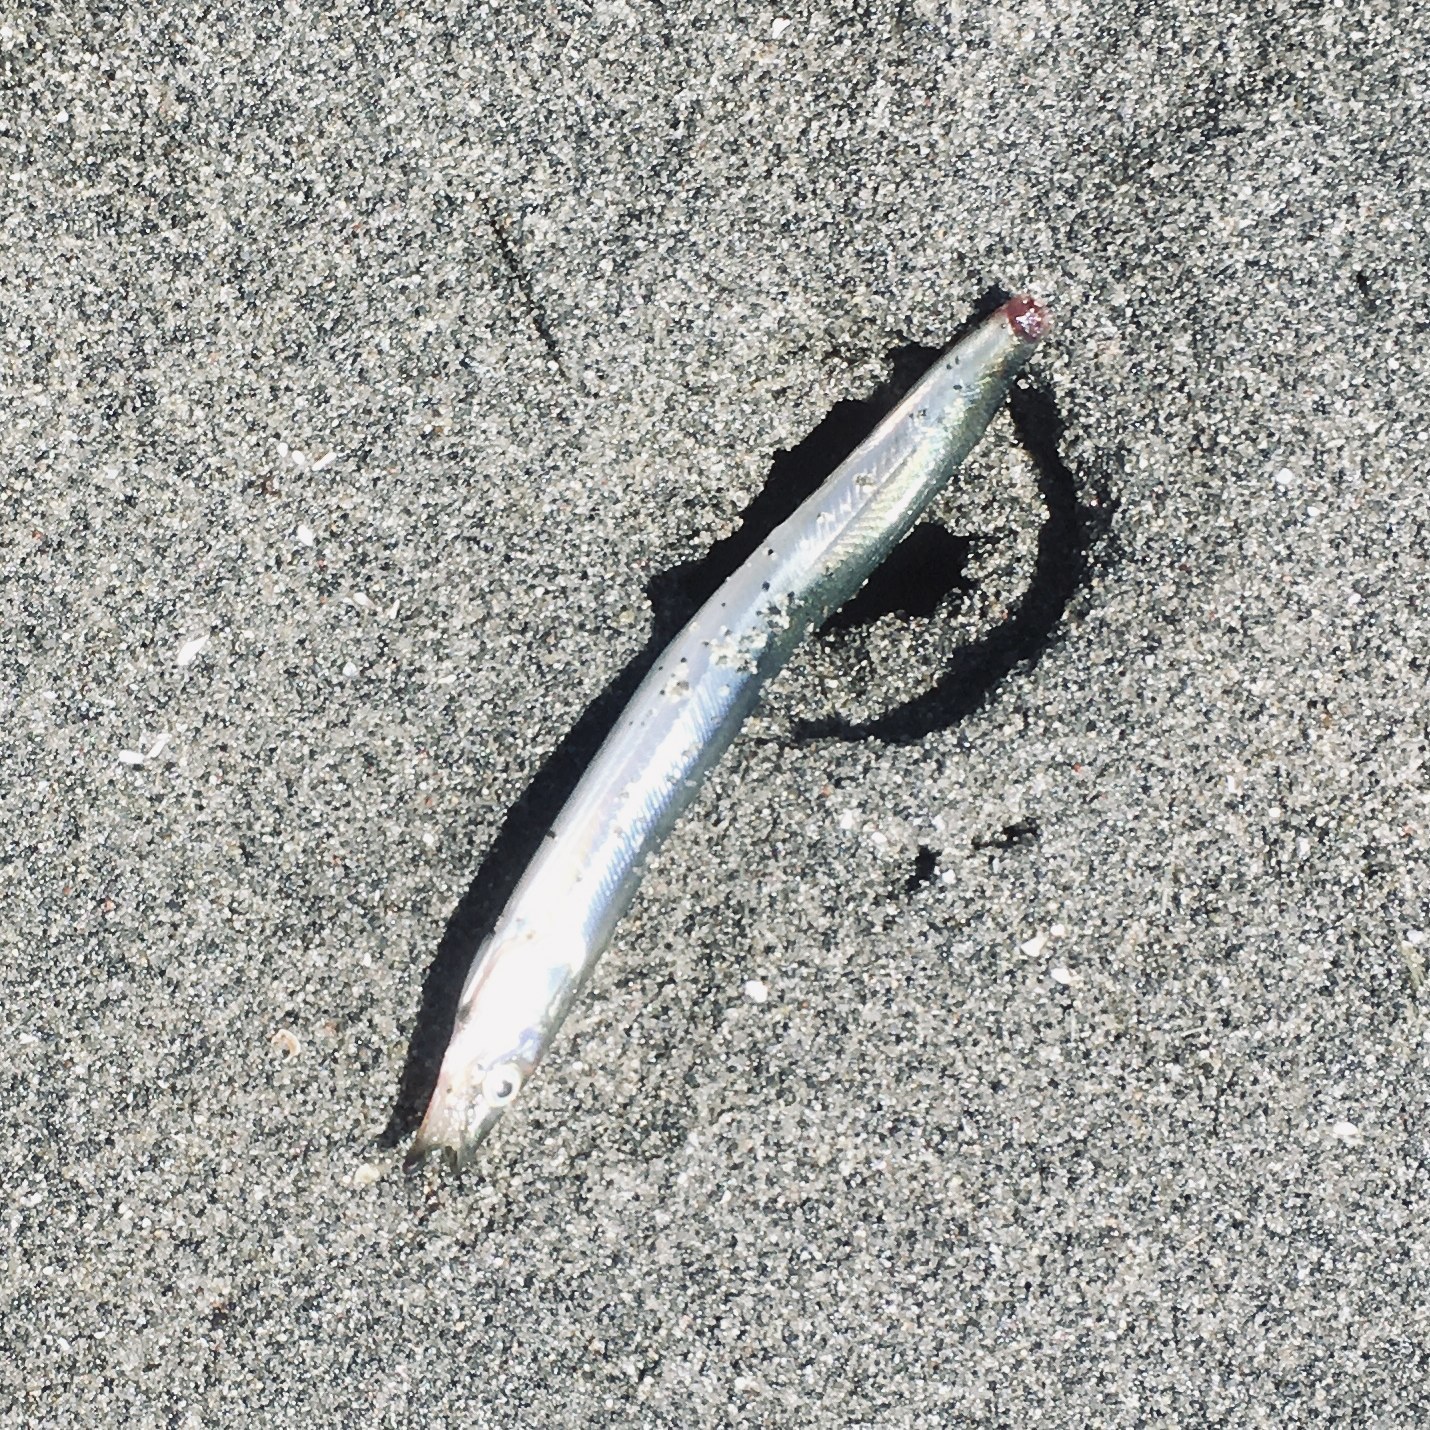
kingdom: Animalia
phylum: Chordata
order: Perciformes
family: Ammodytidae
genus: Ammodytes
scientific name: Ammodytes personatus
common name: Japanese sand lance
